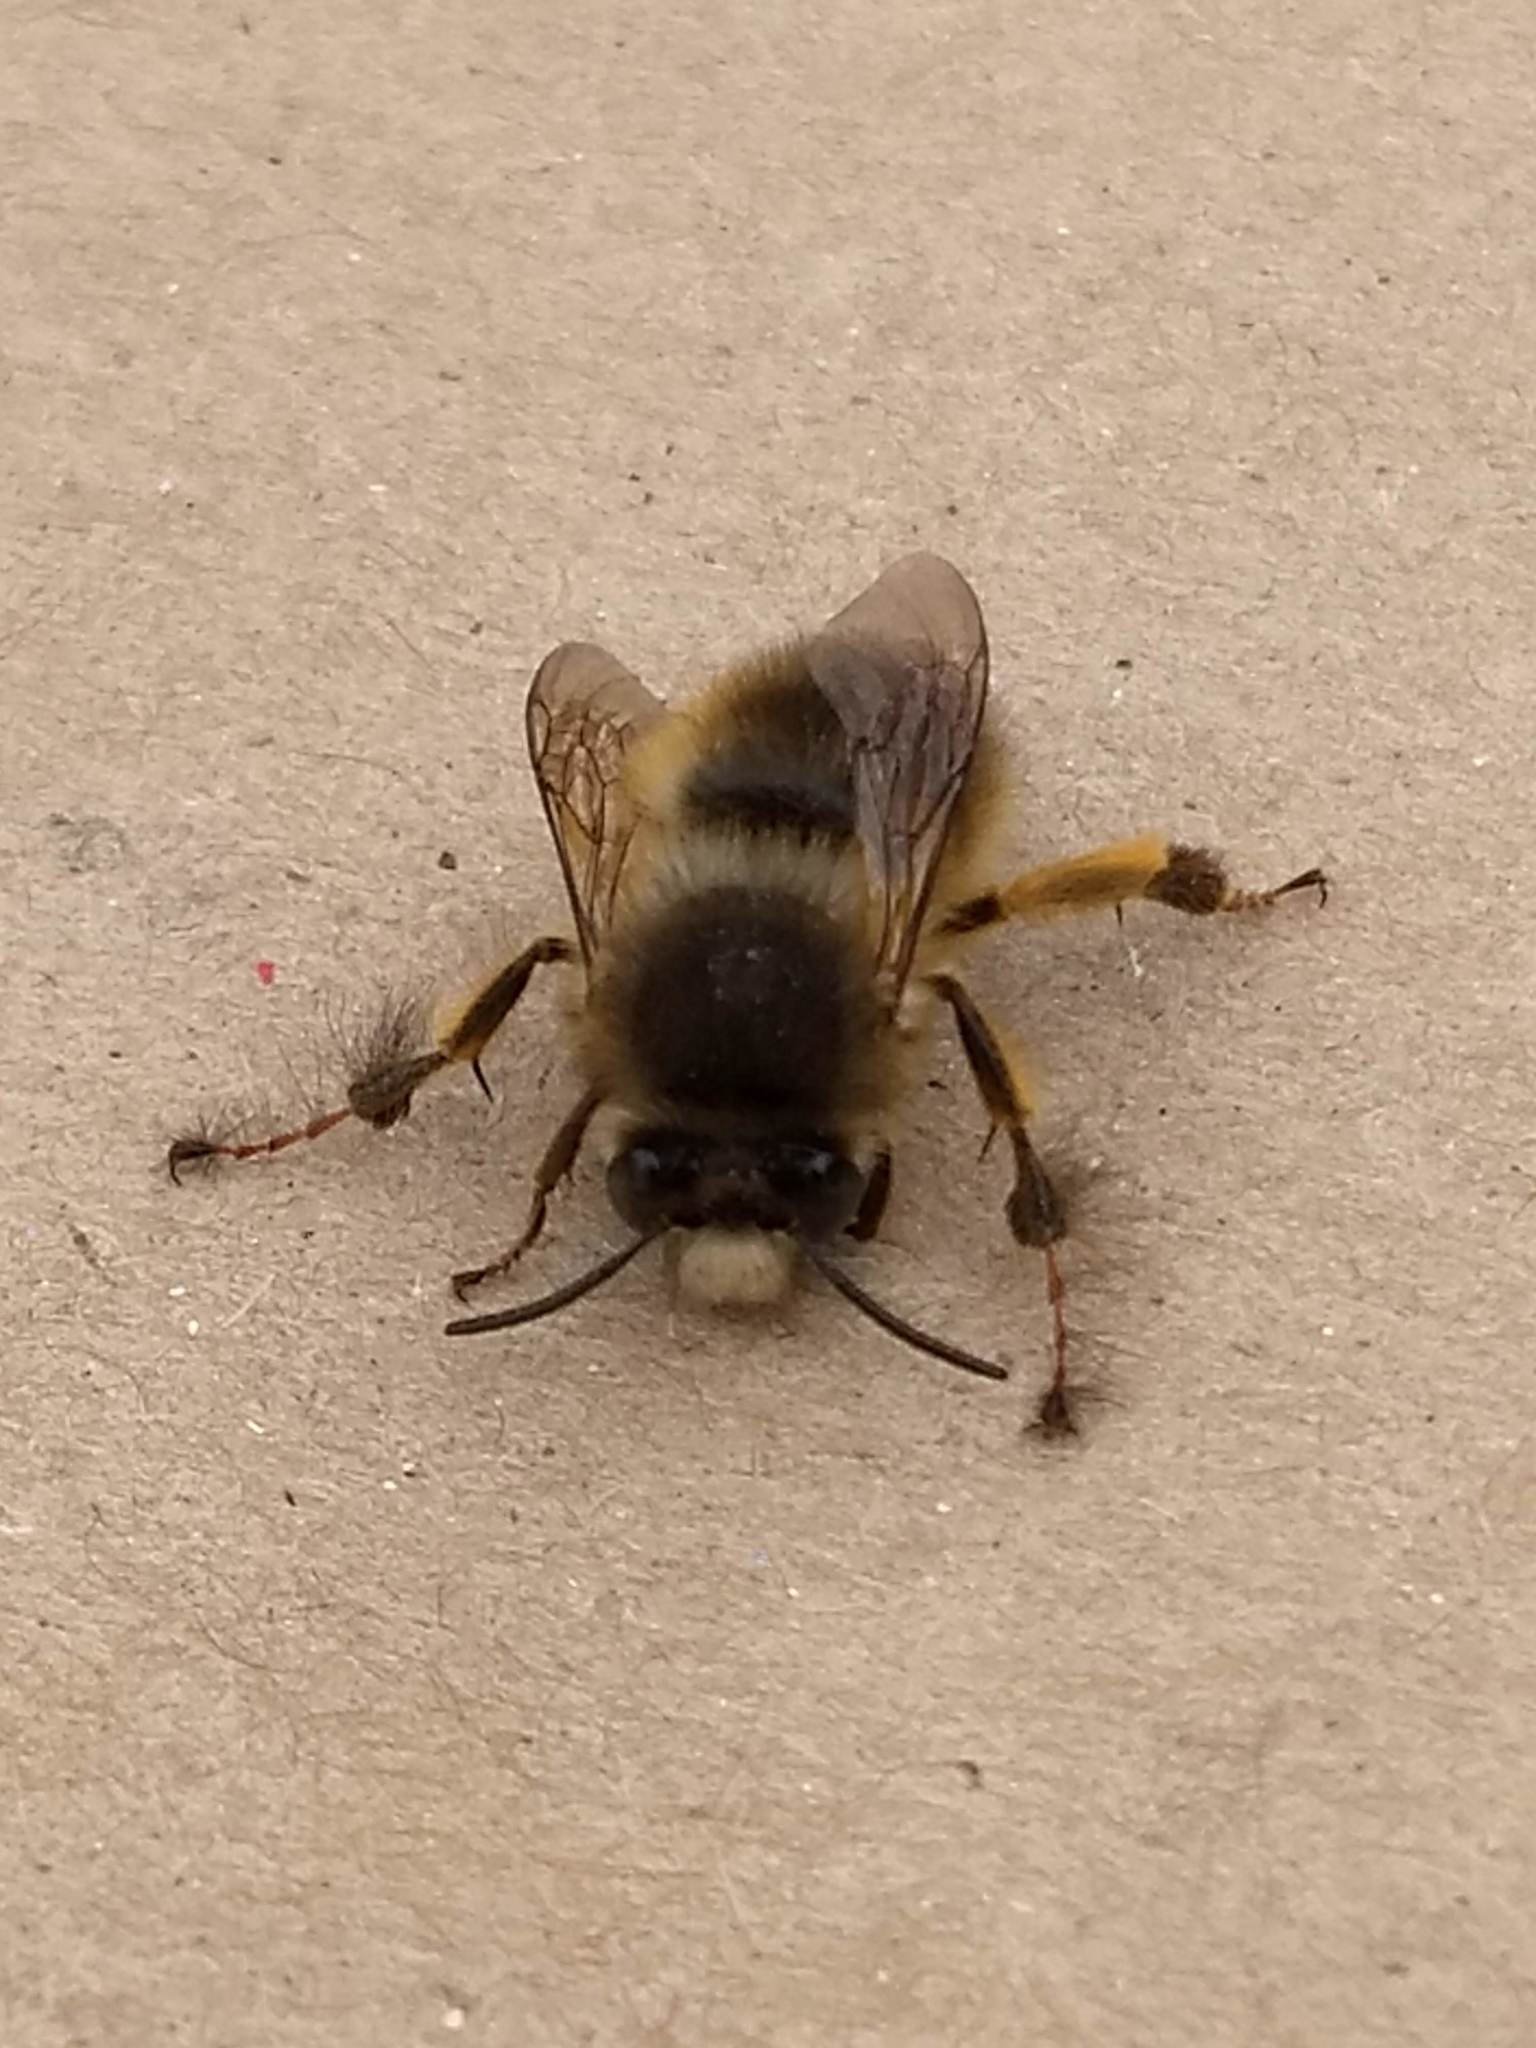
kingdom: Animalia
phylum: Arthropoda
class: Insecta
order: Hymenoptera
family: Apidae
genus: Anthophora
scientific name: Anthophora villosula
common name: Asian shaggy digger
